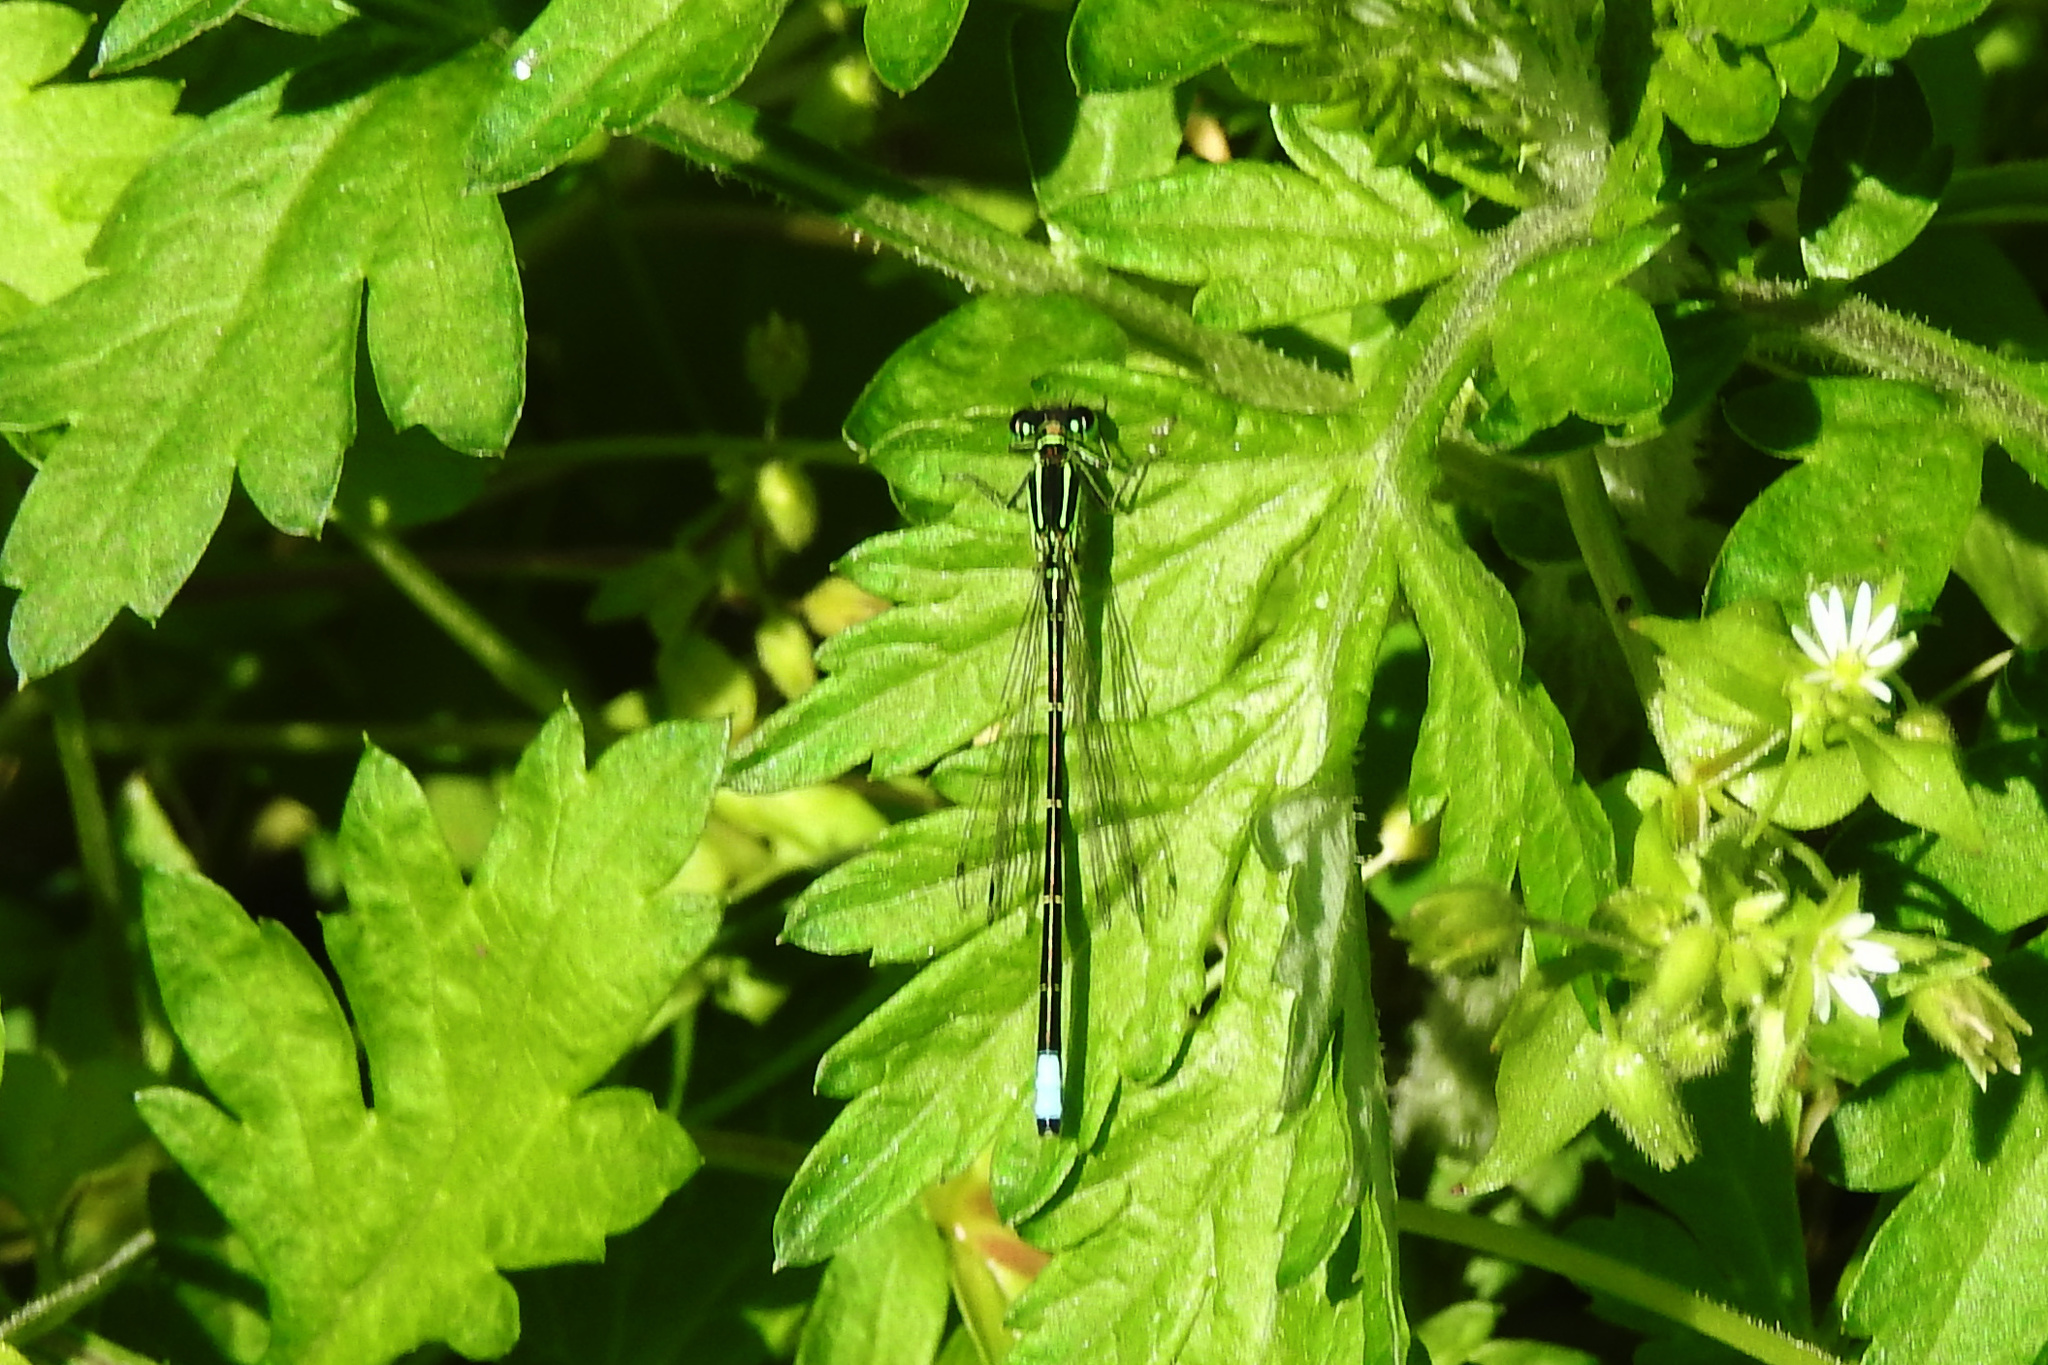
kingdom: Animalia
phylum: Arthropoda
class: Insecta
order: Odonata
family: Coenagrionidae
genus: Ischnura
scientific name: Ischnura verticalis
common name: Eastern forktail
